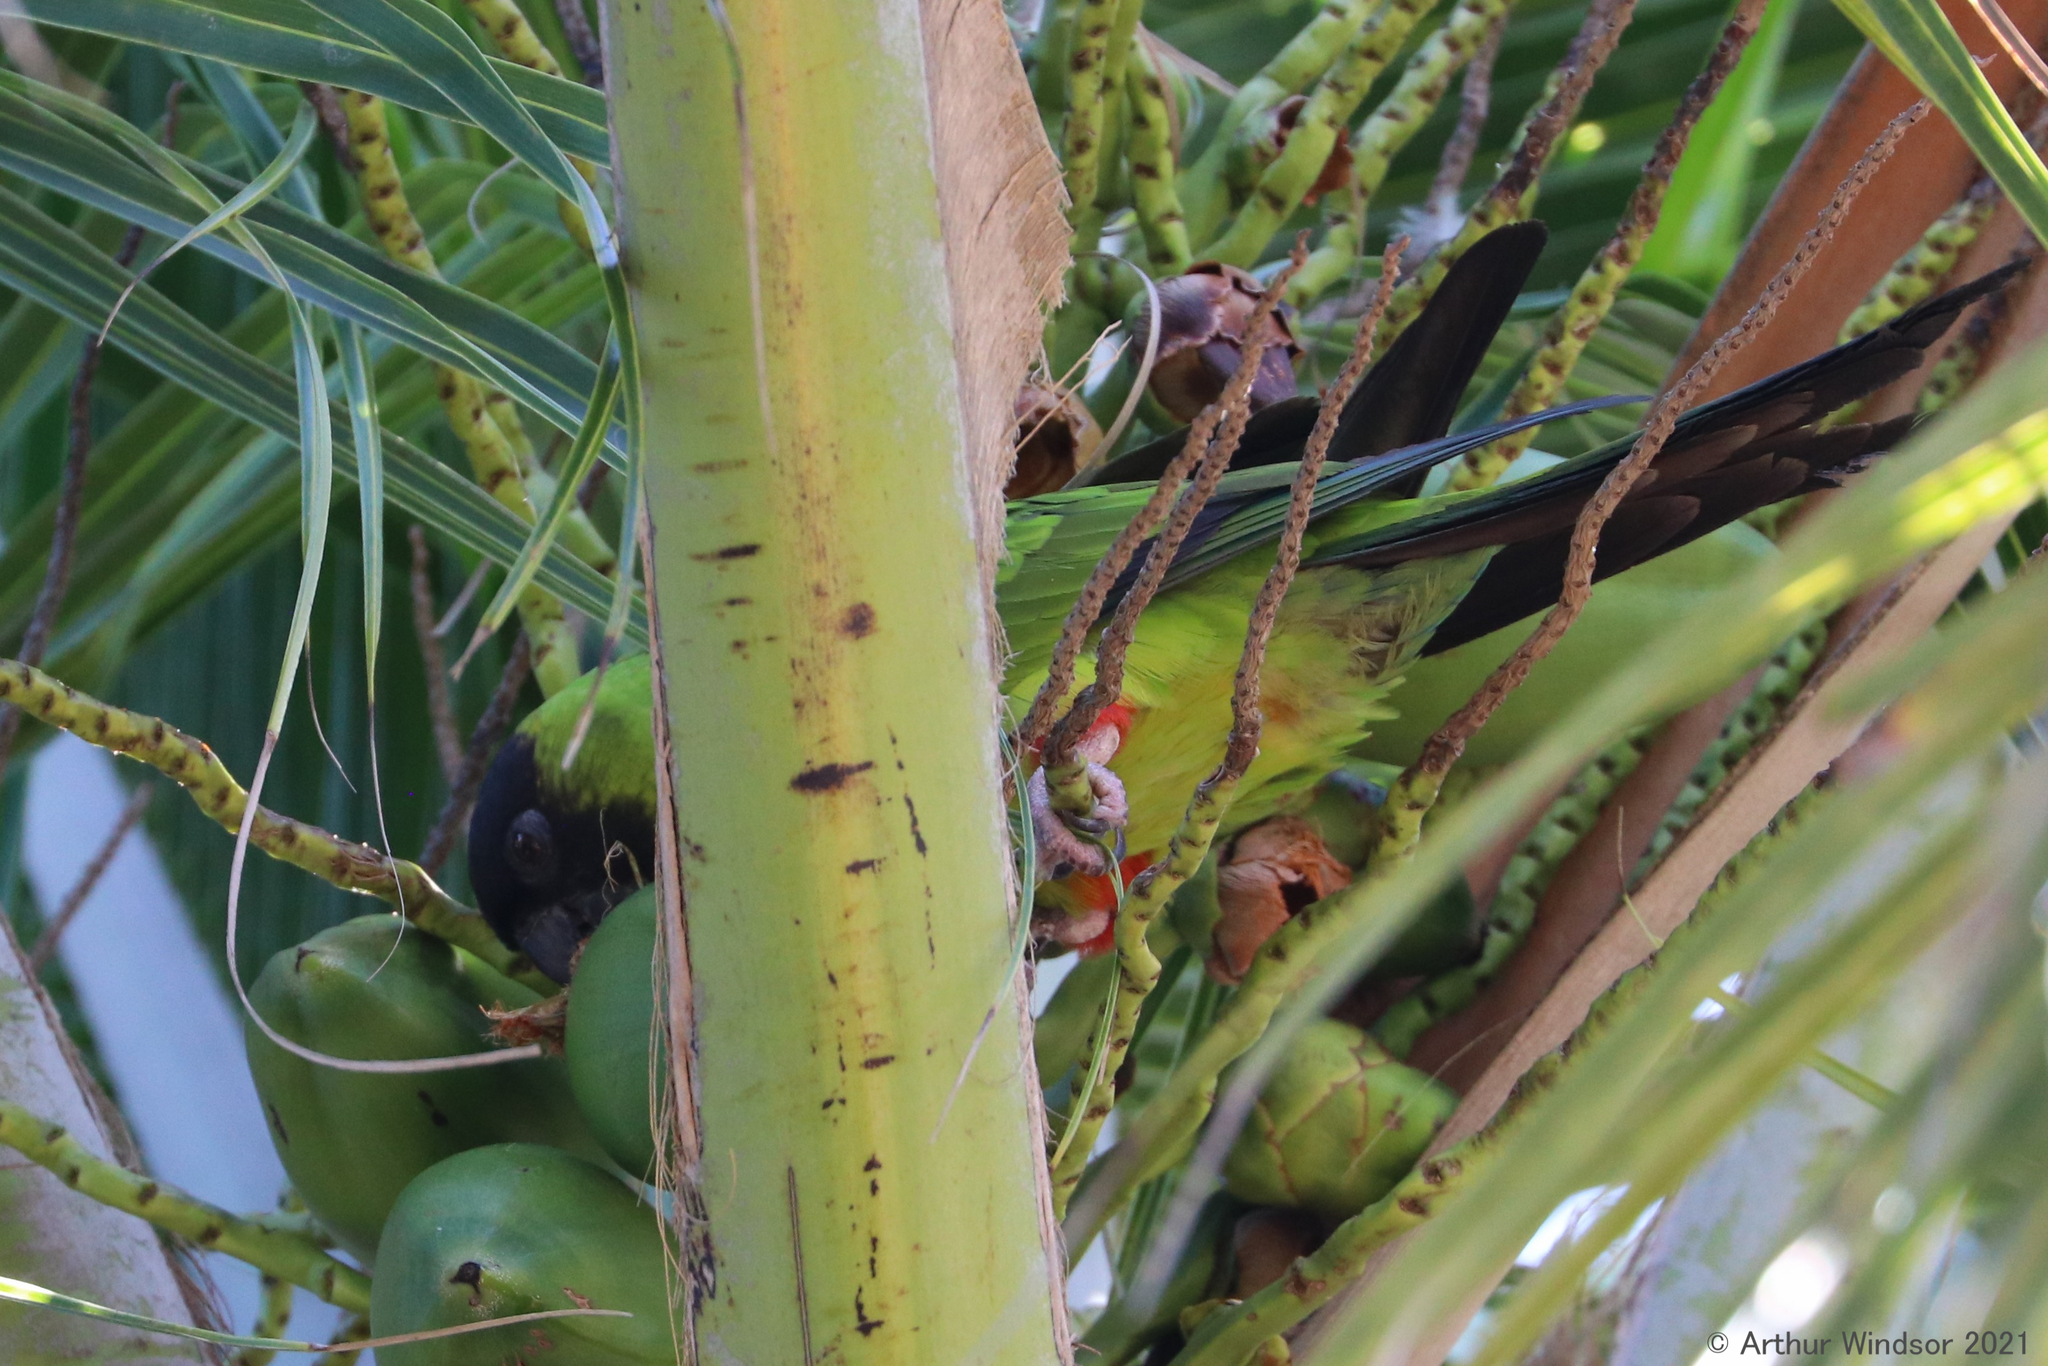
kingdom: Animalia
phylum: Chordata
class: Aves
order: Psittaciformes
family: Psittacidae
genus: Nandayus
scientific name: Nandayus nenday
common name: Nanday parakeet
